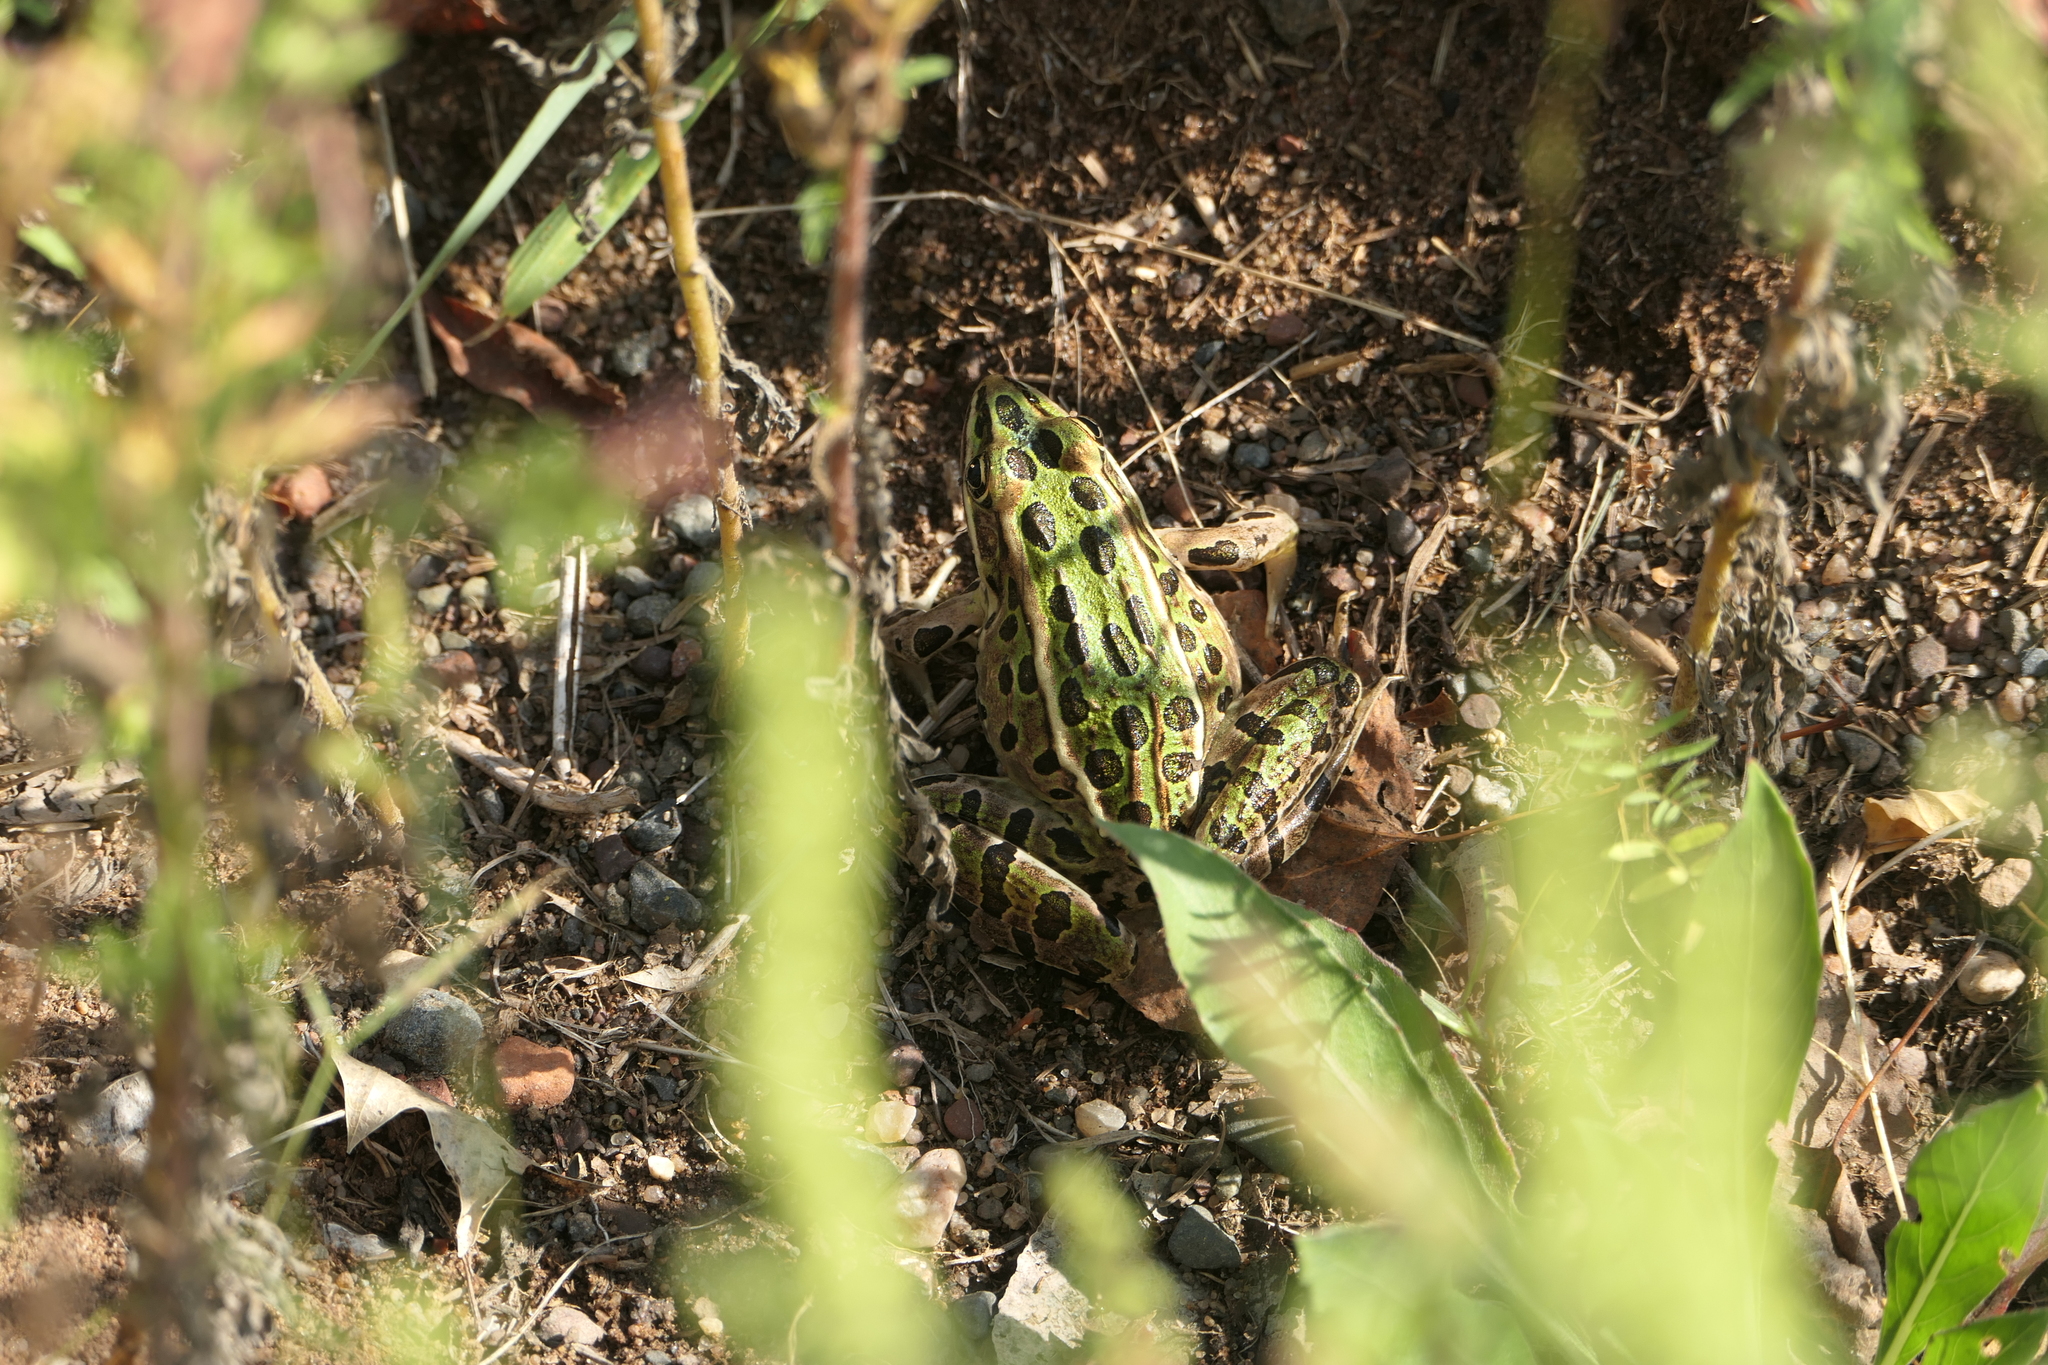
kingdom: Animalia
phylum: Chordata
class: Amphibia
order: Anura
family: Ranidae
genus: Lithobates
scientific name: Lithobates pipiens
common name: Northern leopard frog
